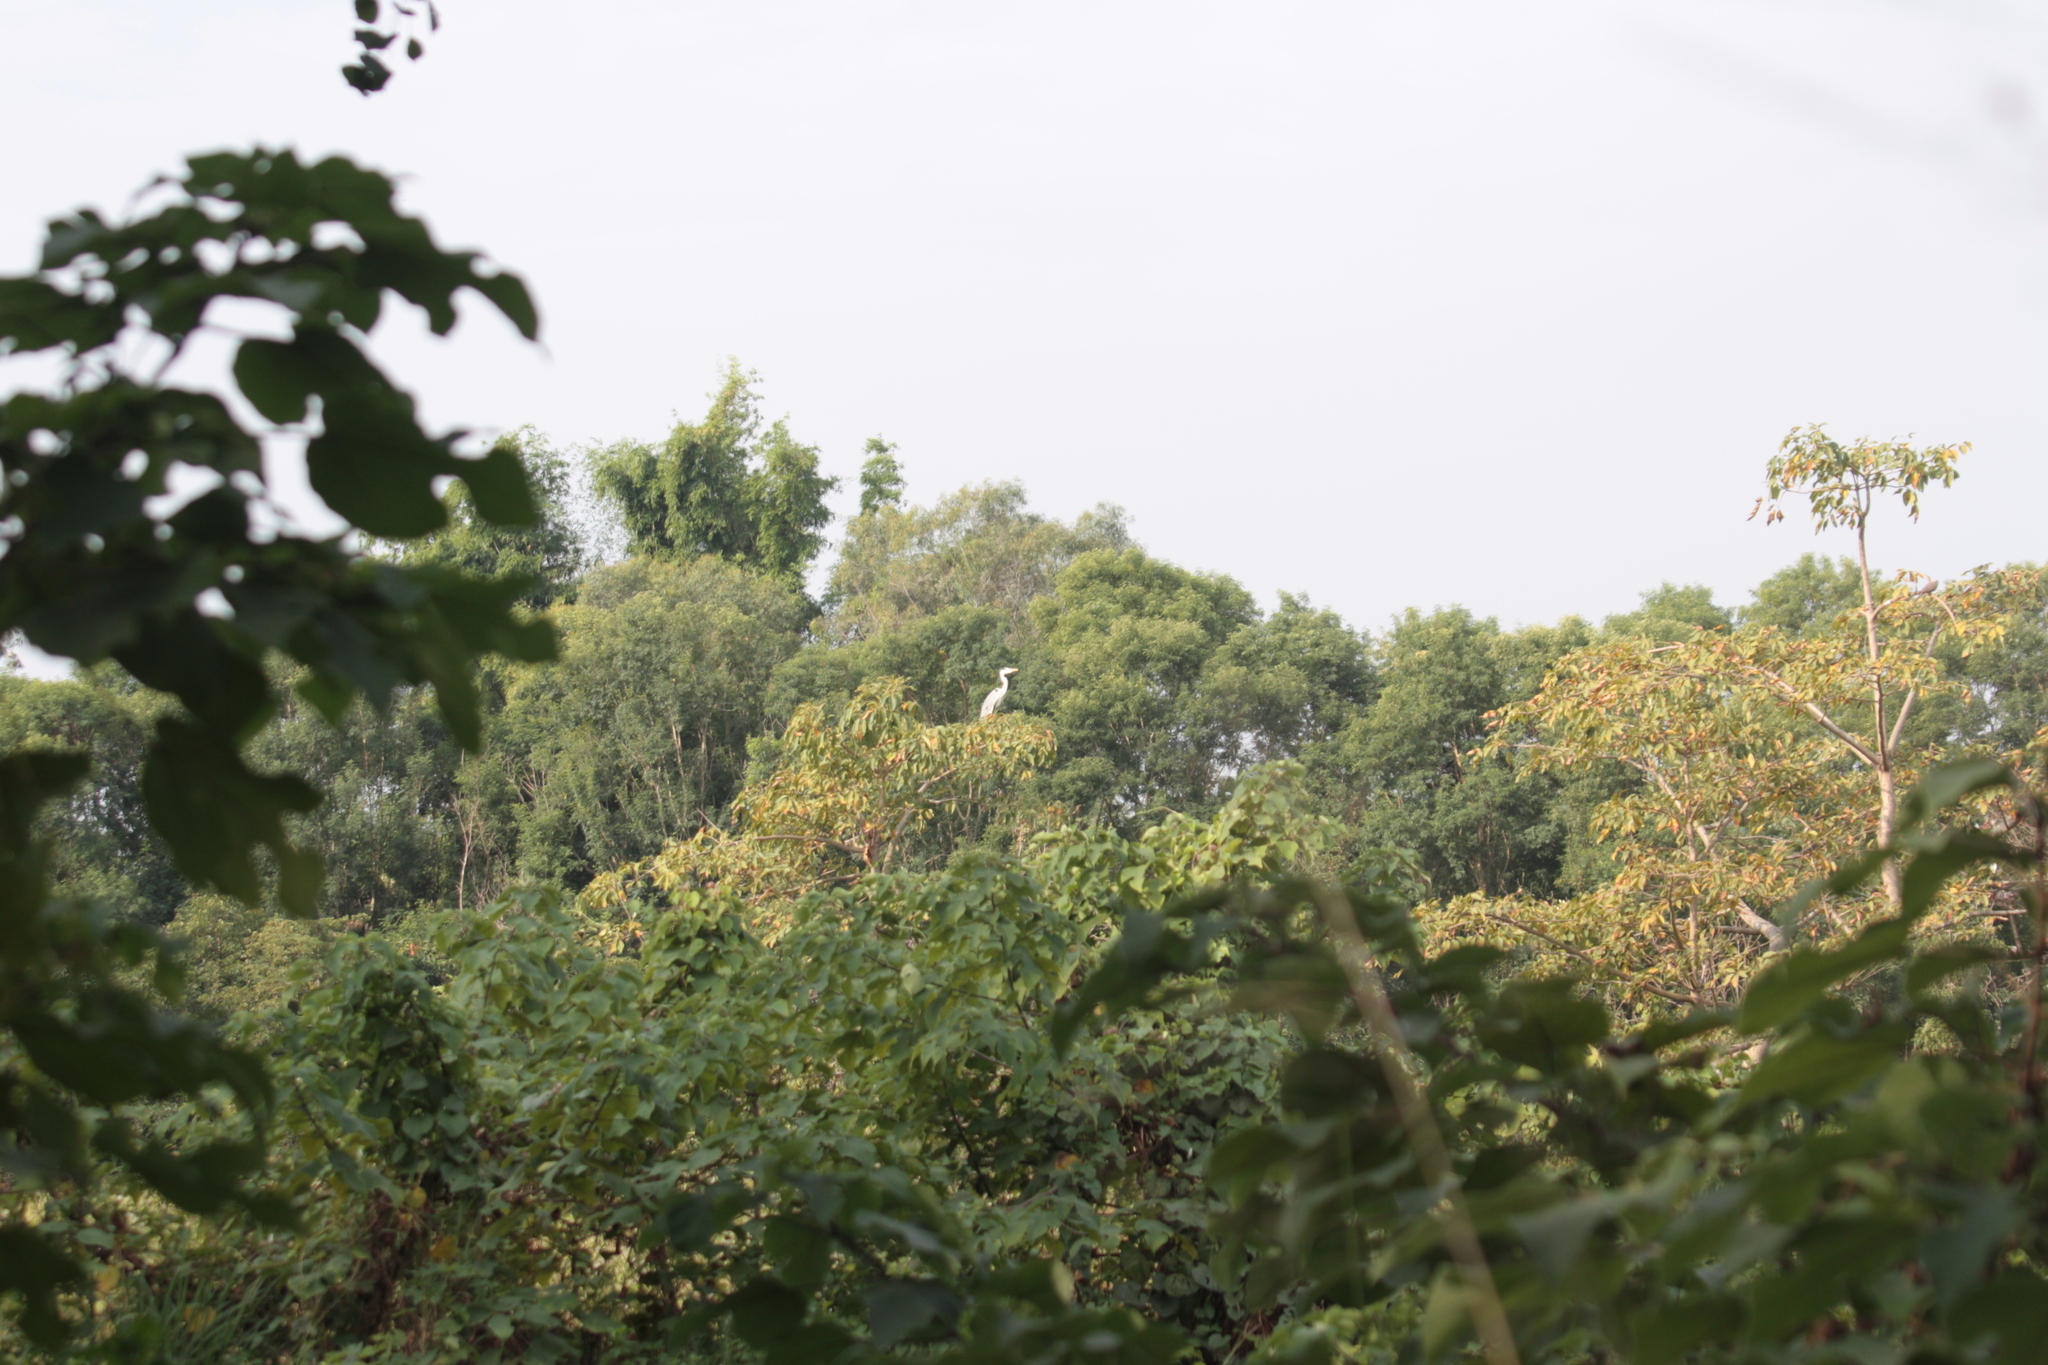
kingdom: Animalia
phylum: Chordata
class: Aves
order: Pelecaniformes
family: Ardeidae
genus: Ardea
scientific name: Ardea cinerea
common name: Grey heron
